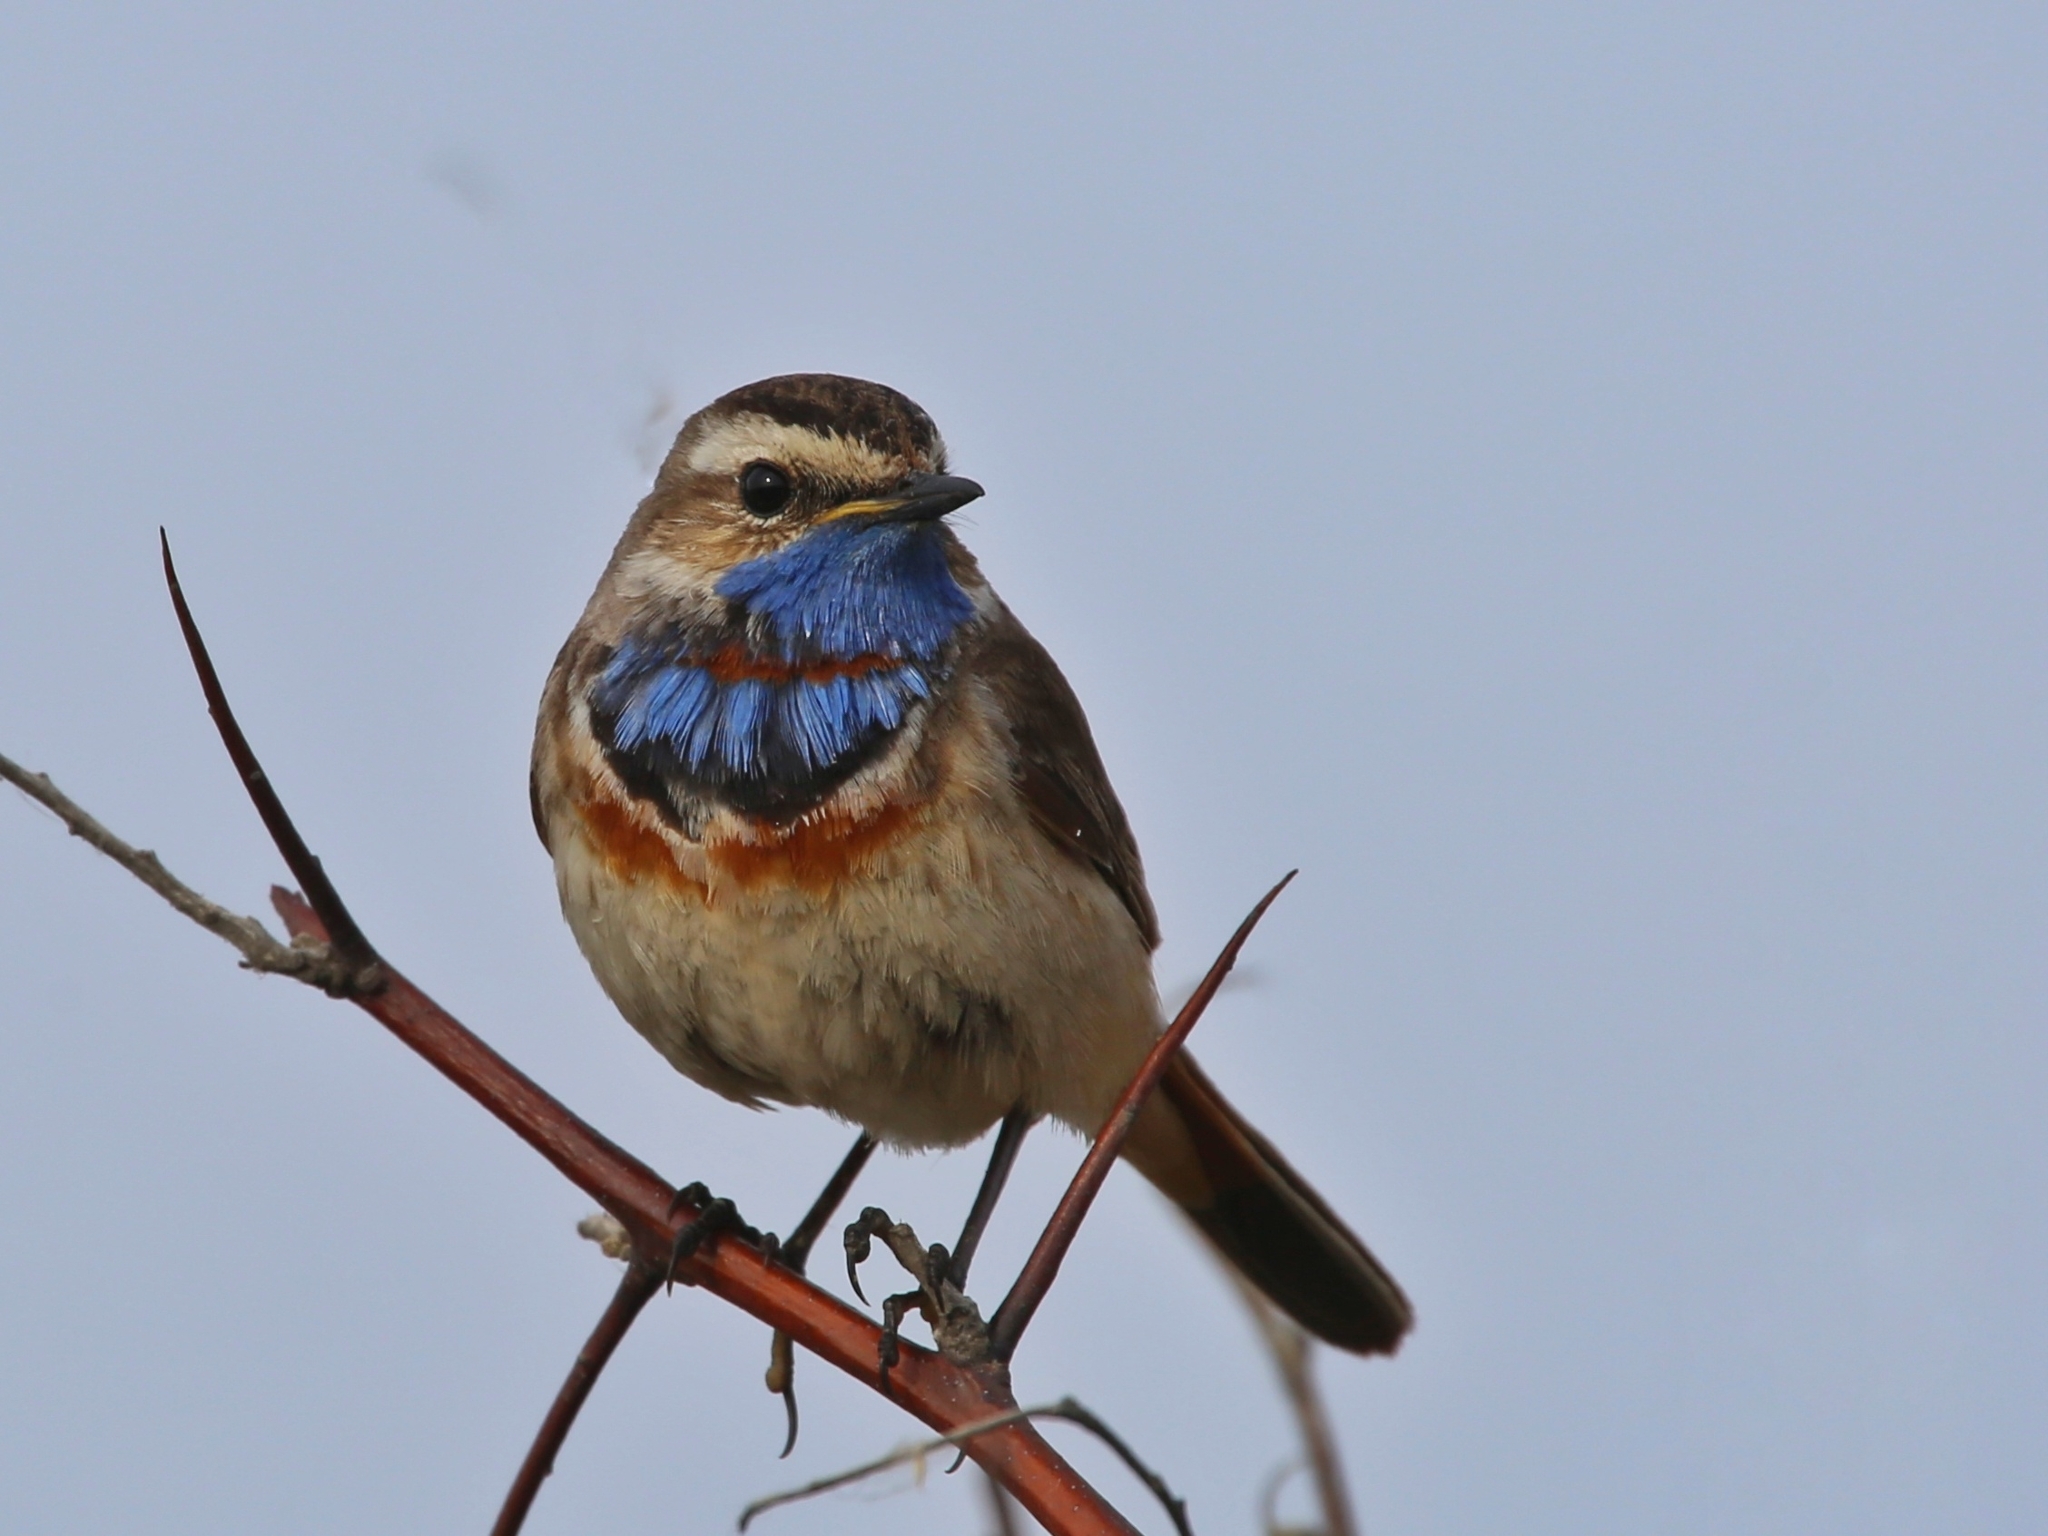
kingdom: Animalia
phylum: Chordata
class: Aves
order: Passeriformes
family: Muscicapidae
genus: Luscinia
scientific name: Luscinia svecica
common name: Bluethroat
